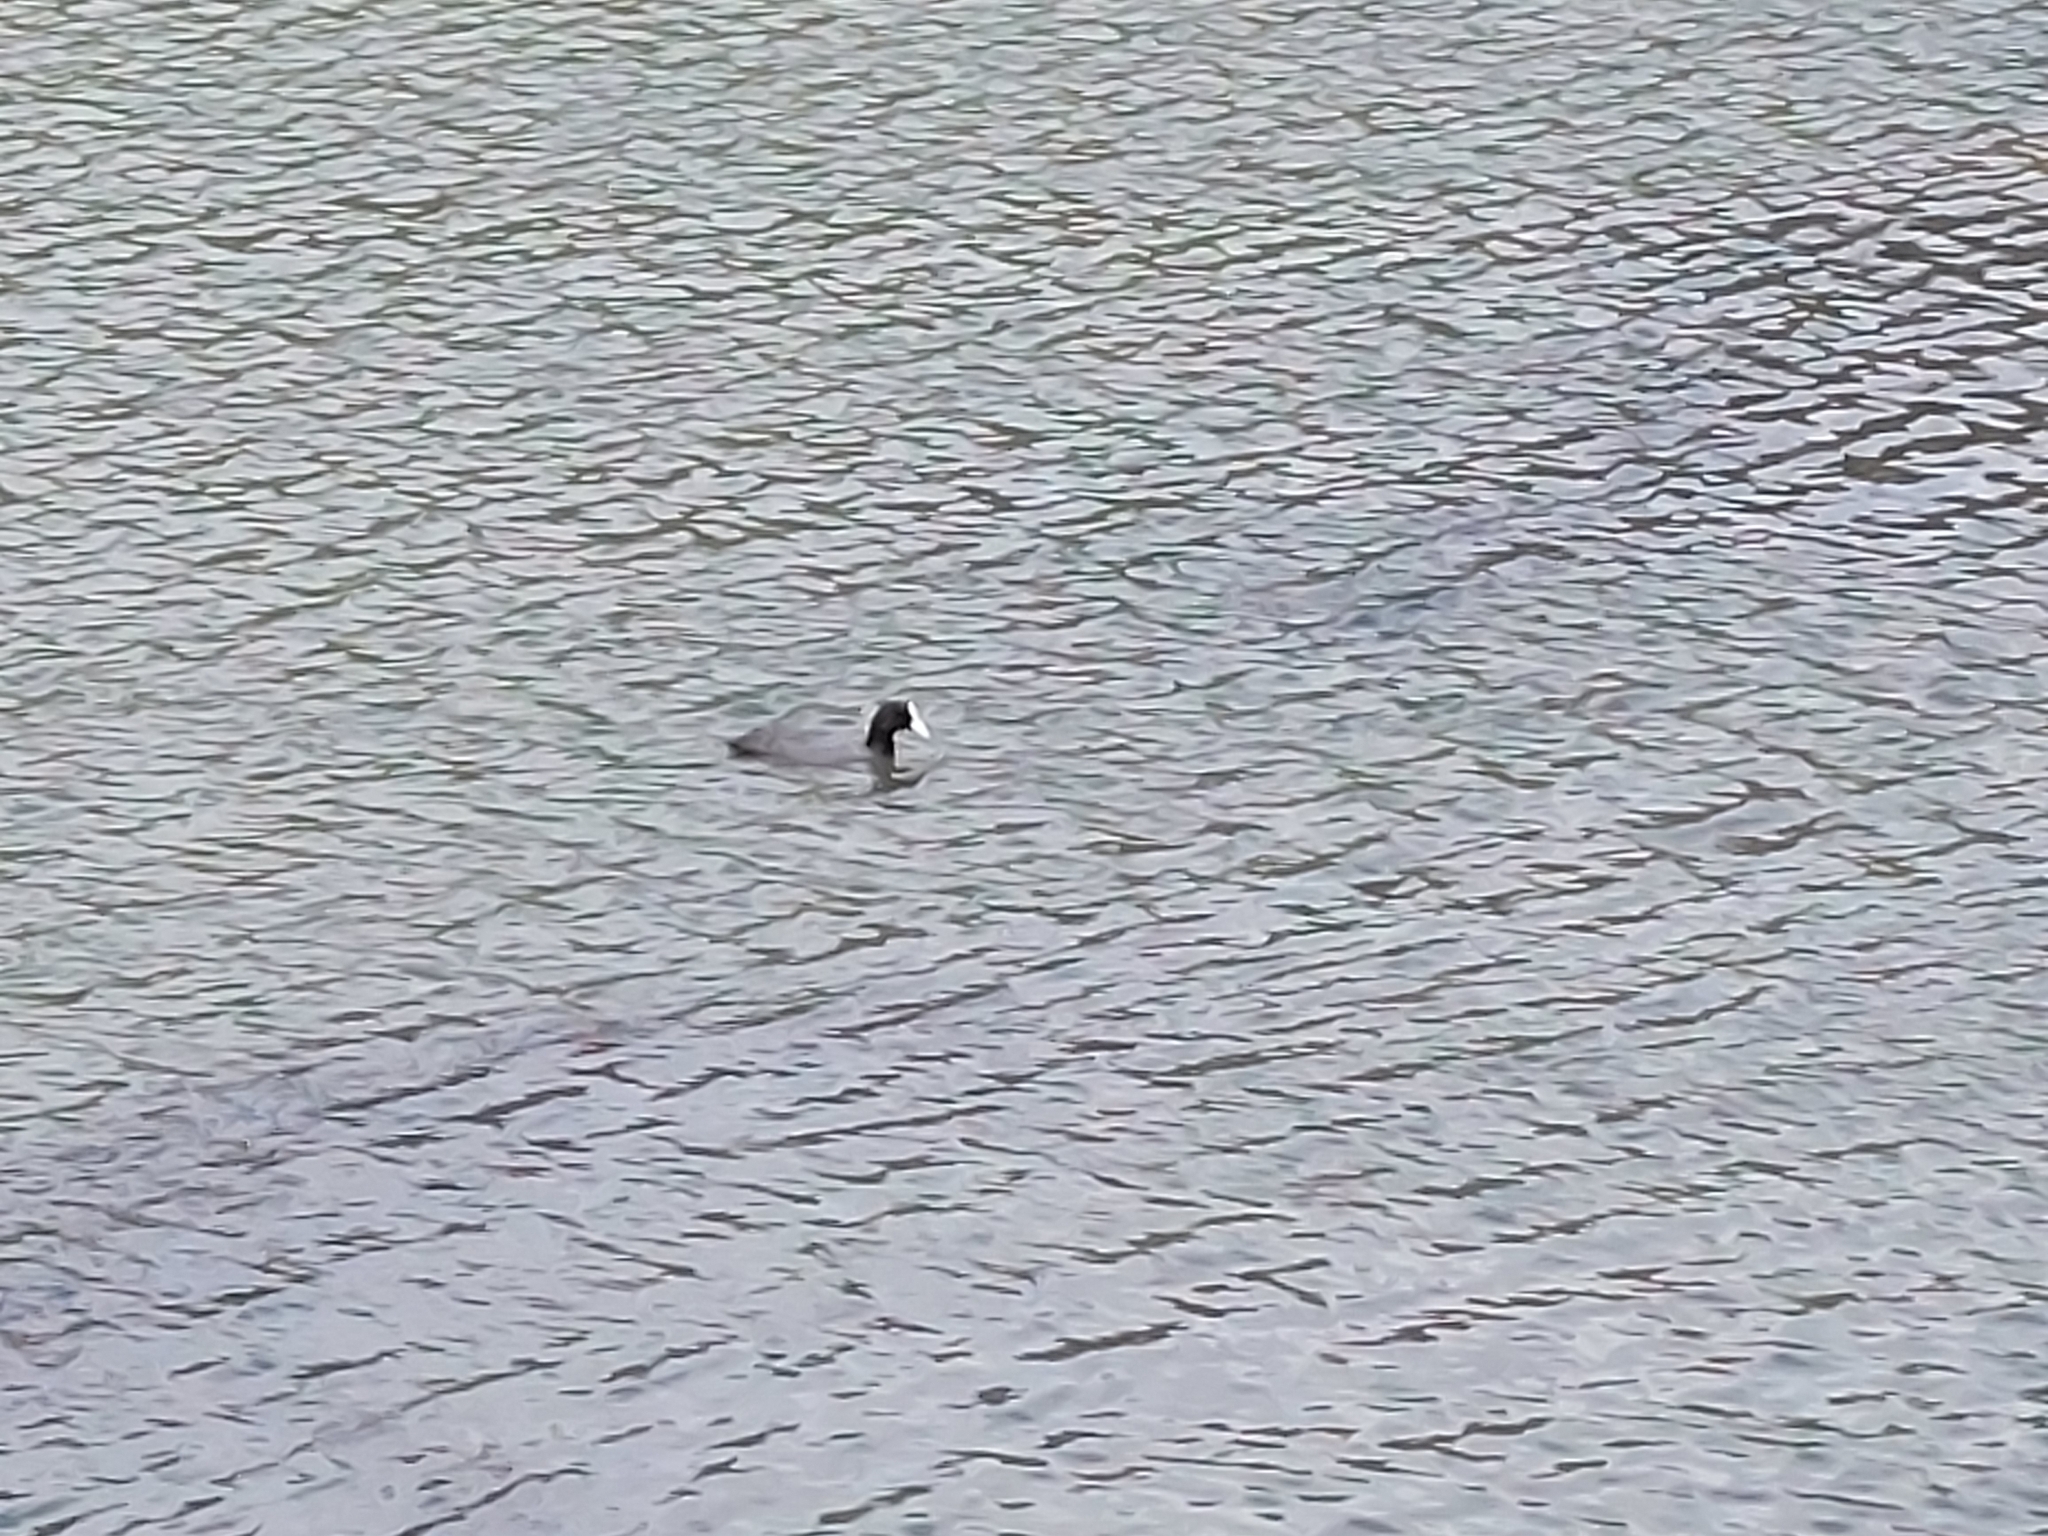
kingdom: Animalia
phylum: Chordata
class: Aves
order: Gruiformes
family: Rallidae
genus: Fulica
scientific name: Fulica atra
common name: Eurasian coot
